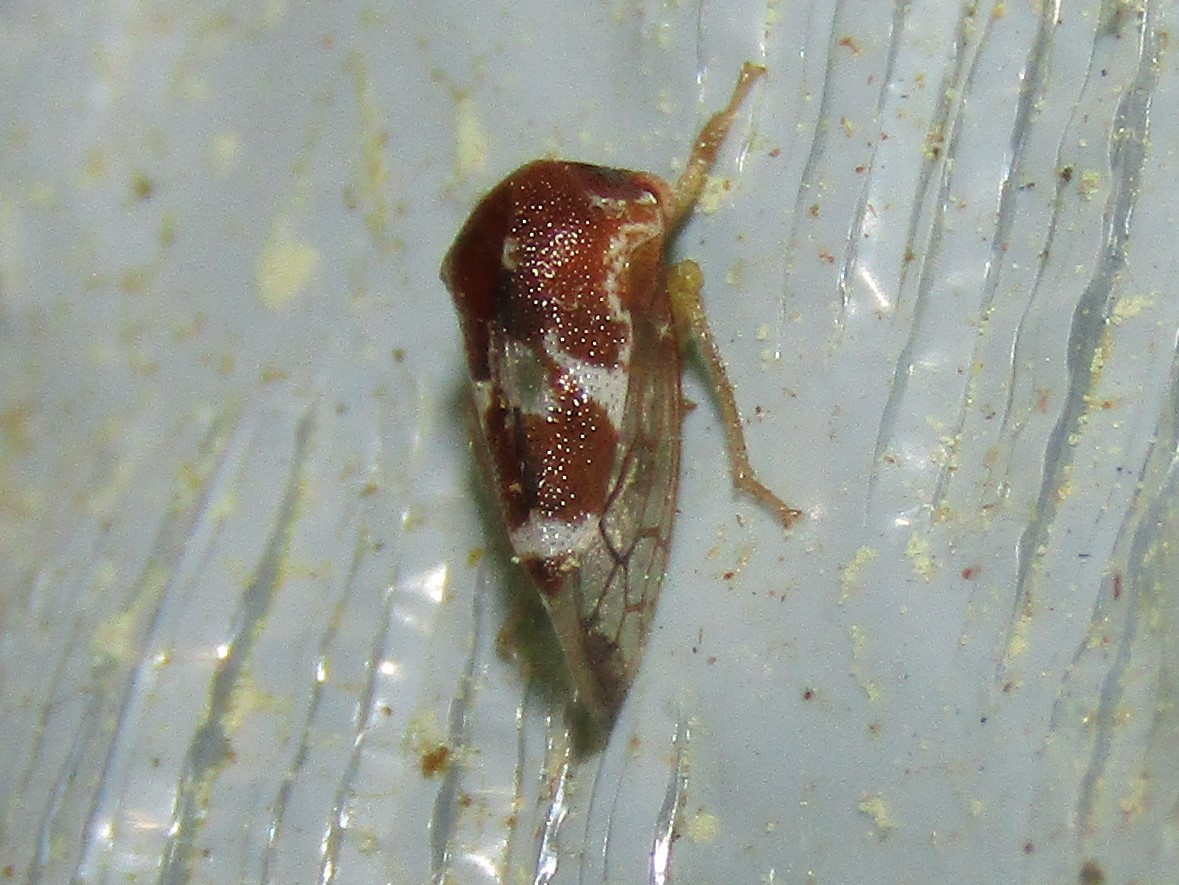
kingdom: Animalia
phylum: Arthropoda
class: Insecta
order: Hemiptera
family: Membracidae
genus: Cyrtolobus
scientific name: Cyrtolobus togatus
